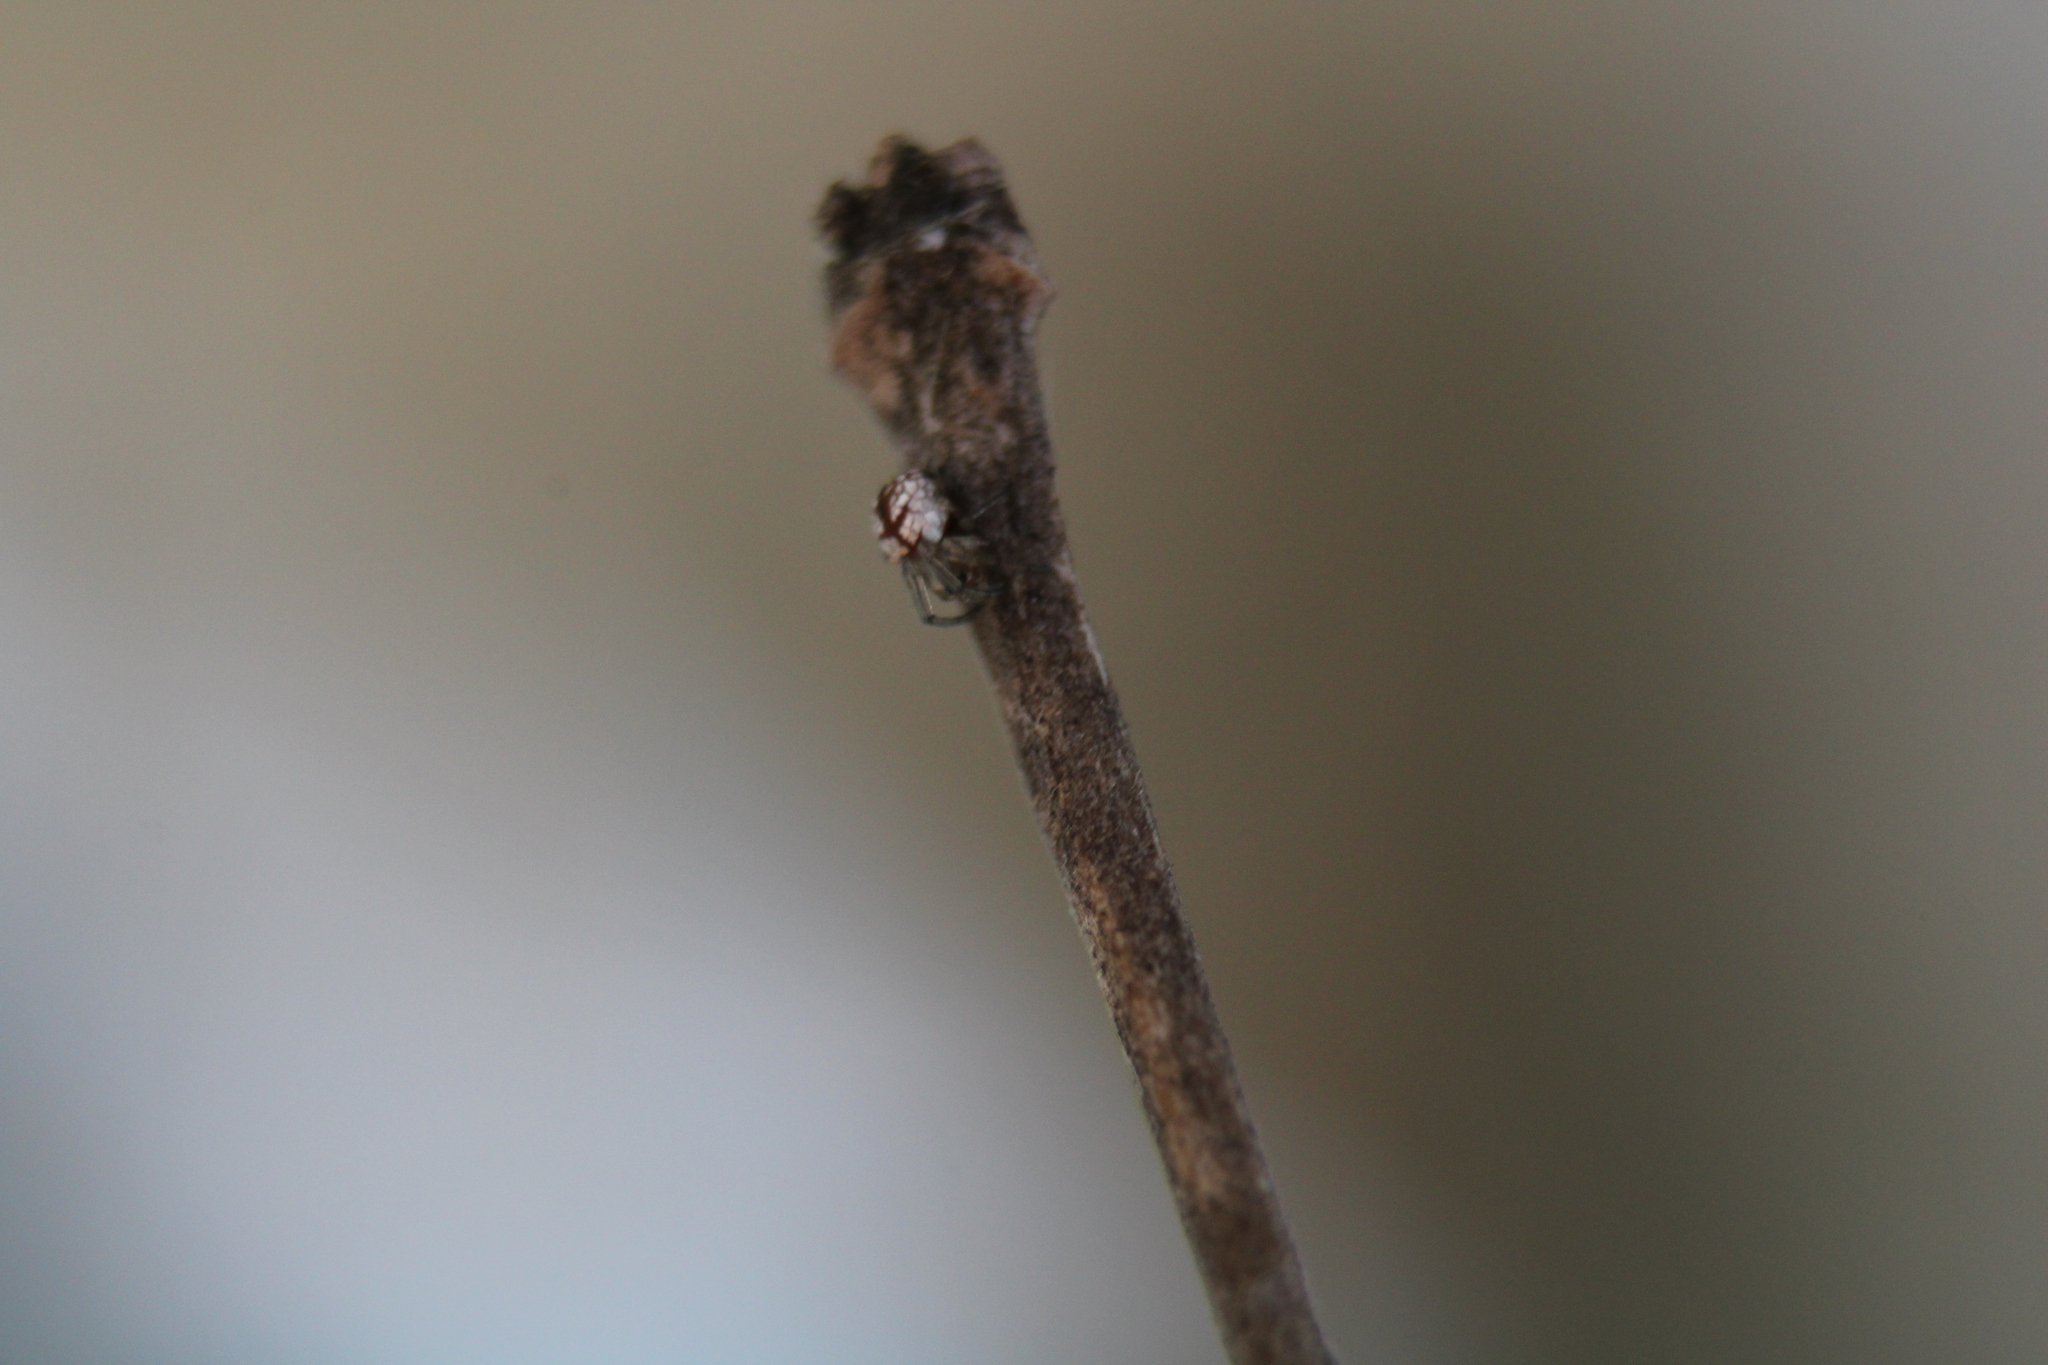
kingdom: Animalia
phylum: Arthropoda
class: Arachnida
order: Araneae
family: Tetragnathidae
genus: Leucauge
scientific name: Leucauge venusta
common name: Longjawed orb weavers
